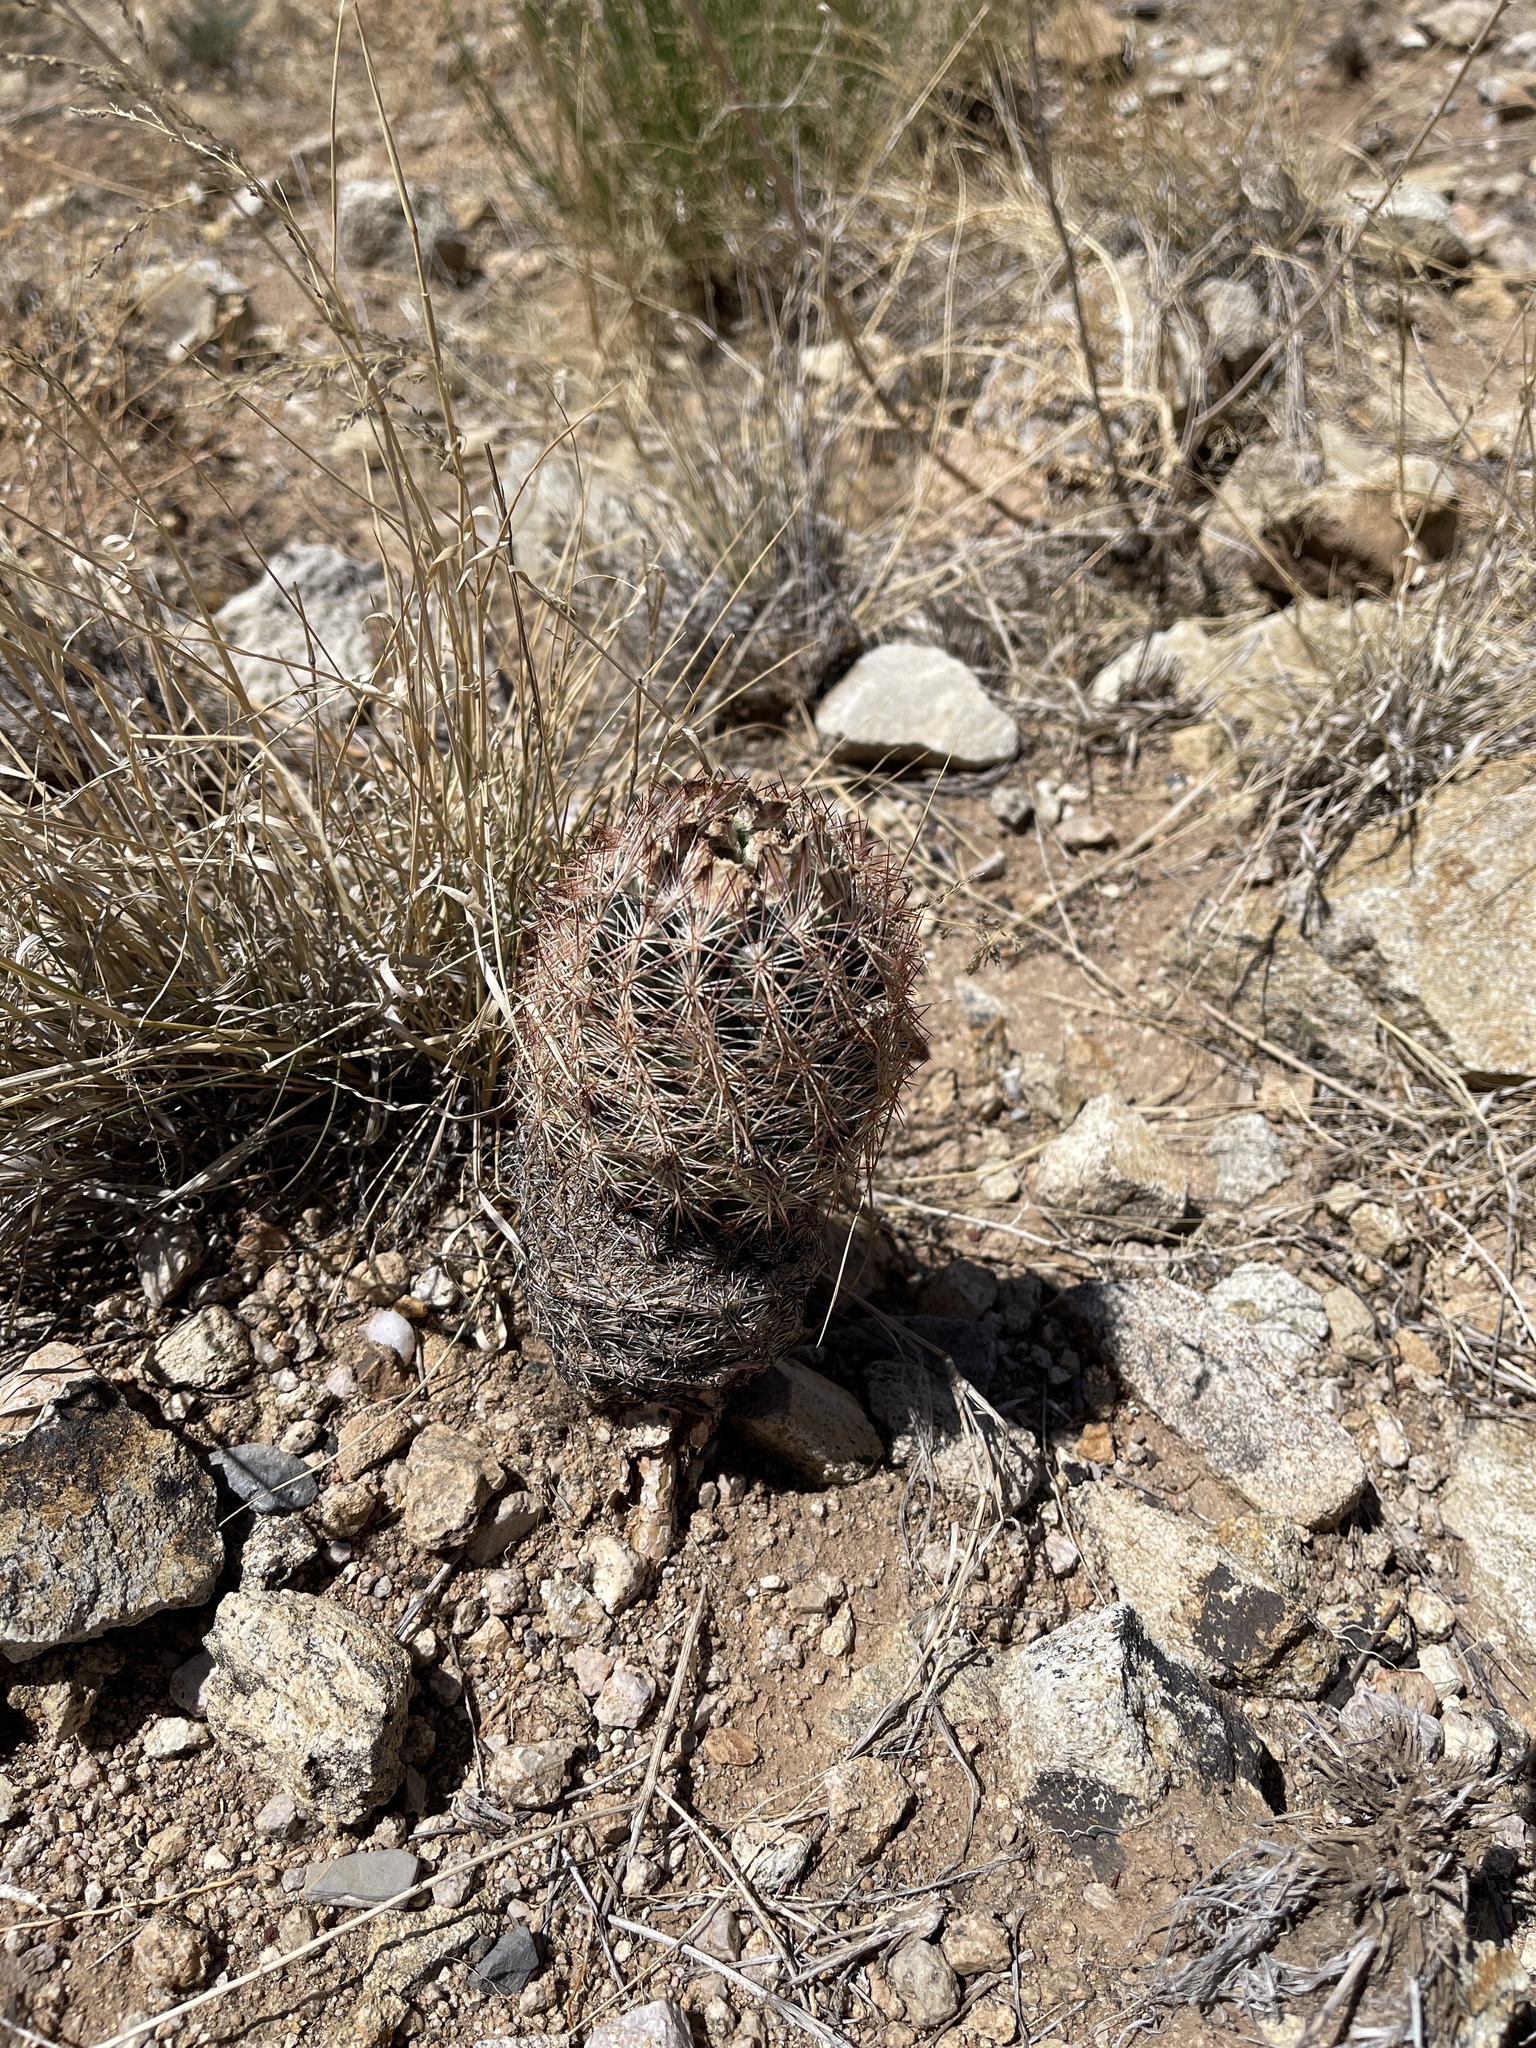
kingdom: Plantae
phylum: Tracheophyta
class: Magnoliopsida
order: Caryophyllales
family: Cactaceae
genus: Sclerocactus
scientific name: Sclerocactus intertextus
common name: White fish-hook cactus
